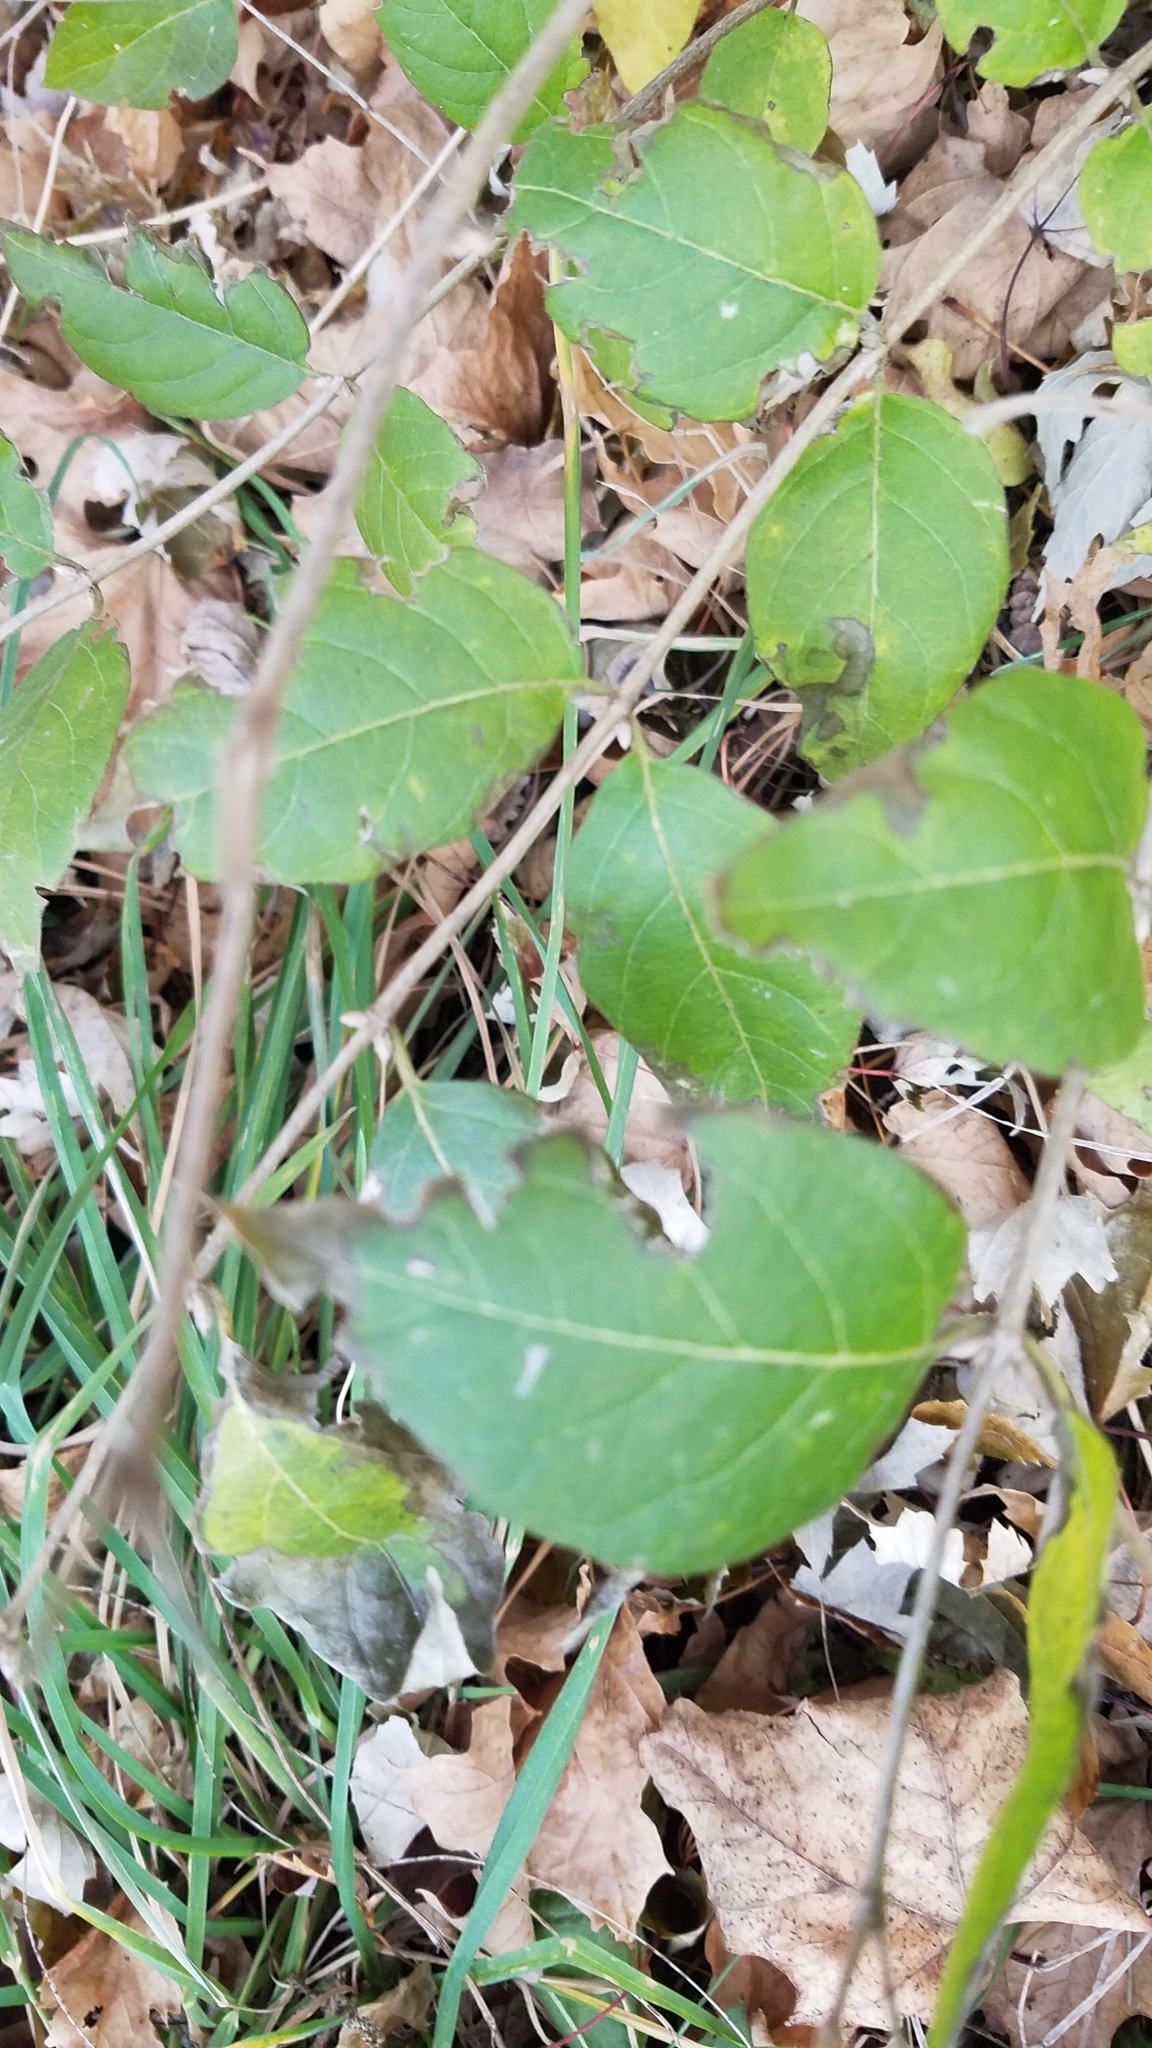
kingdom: Plantae
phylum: Tracheophyta
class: Magnoliopsida
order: Dipsacales
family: Caprifoliaceae
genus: Lonicera
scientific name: Lonicera maackii
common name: Amur honeysuckle
